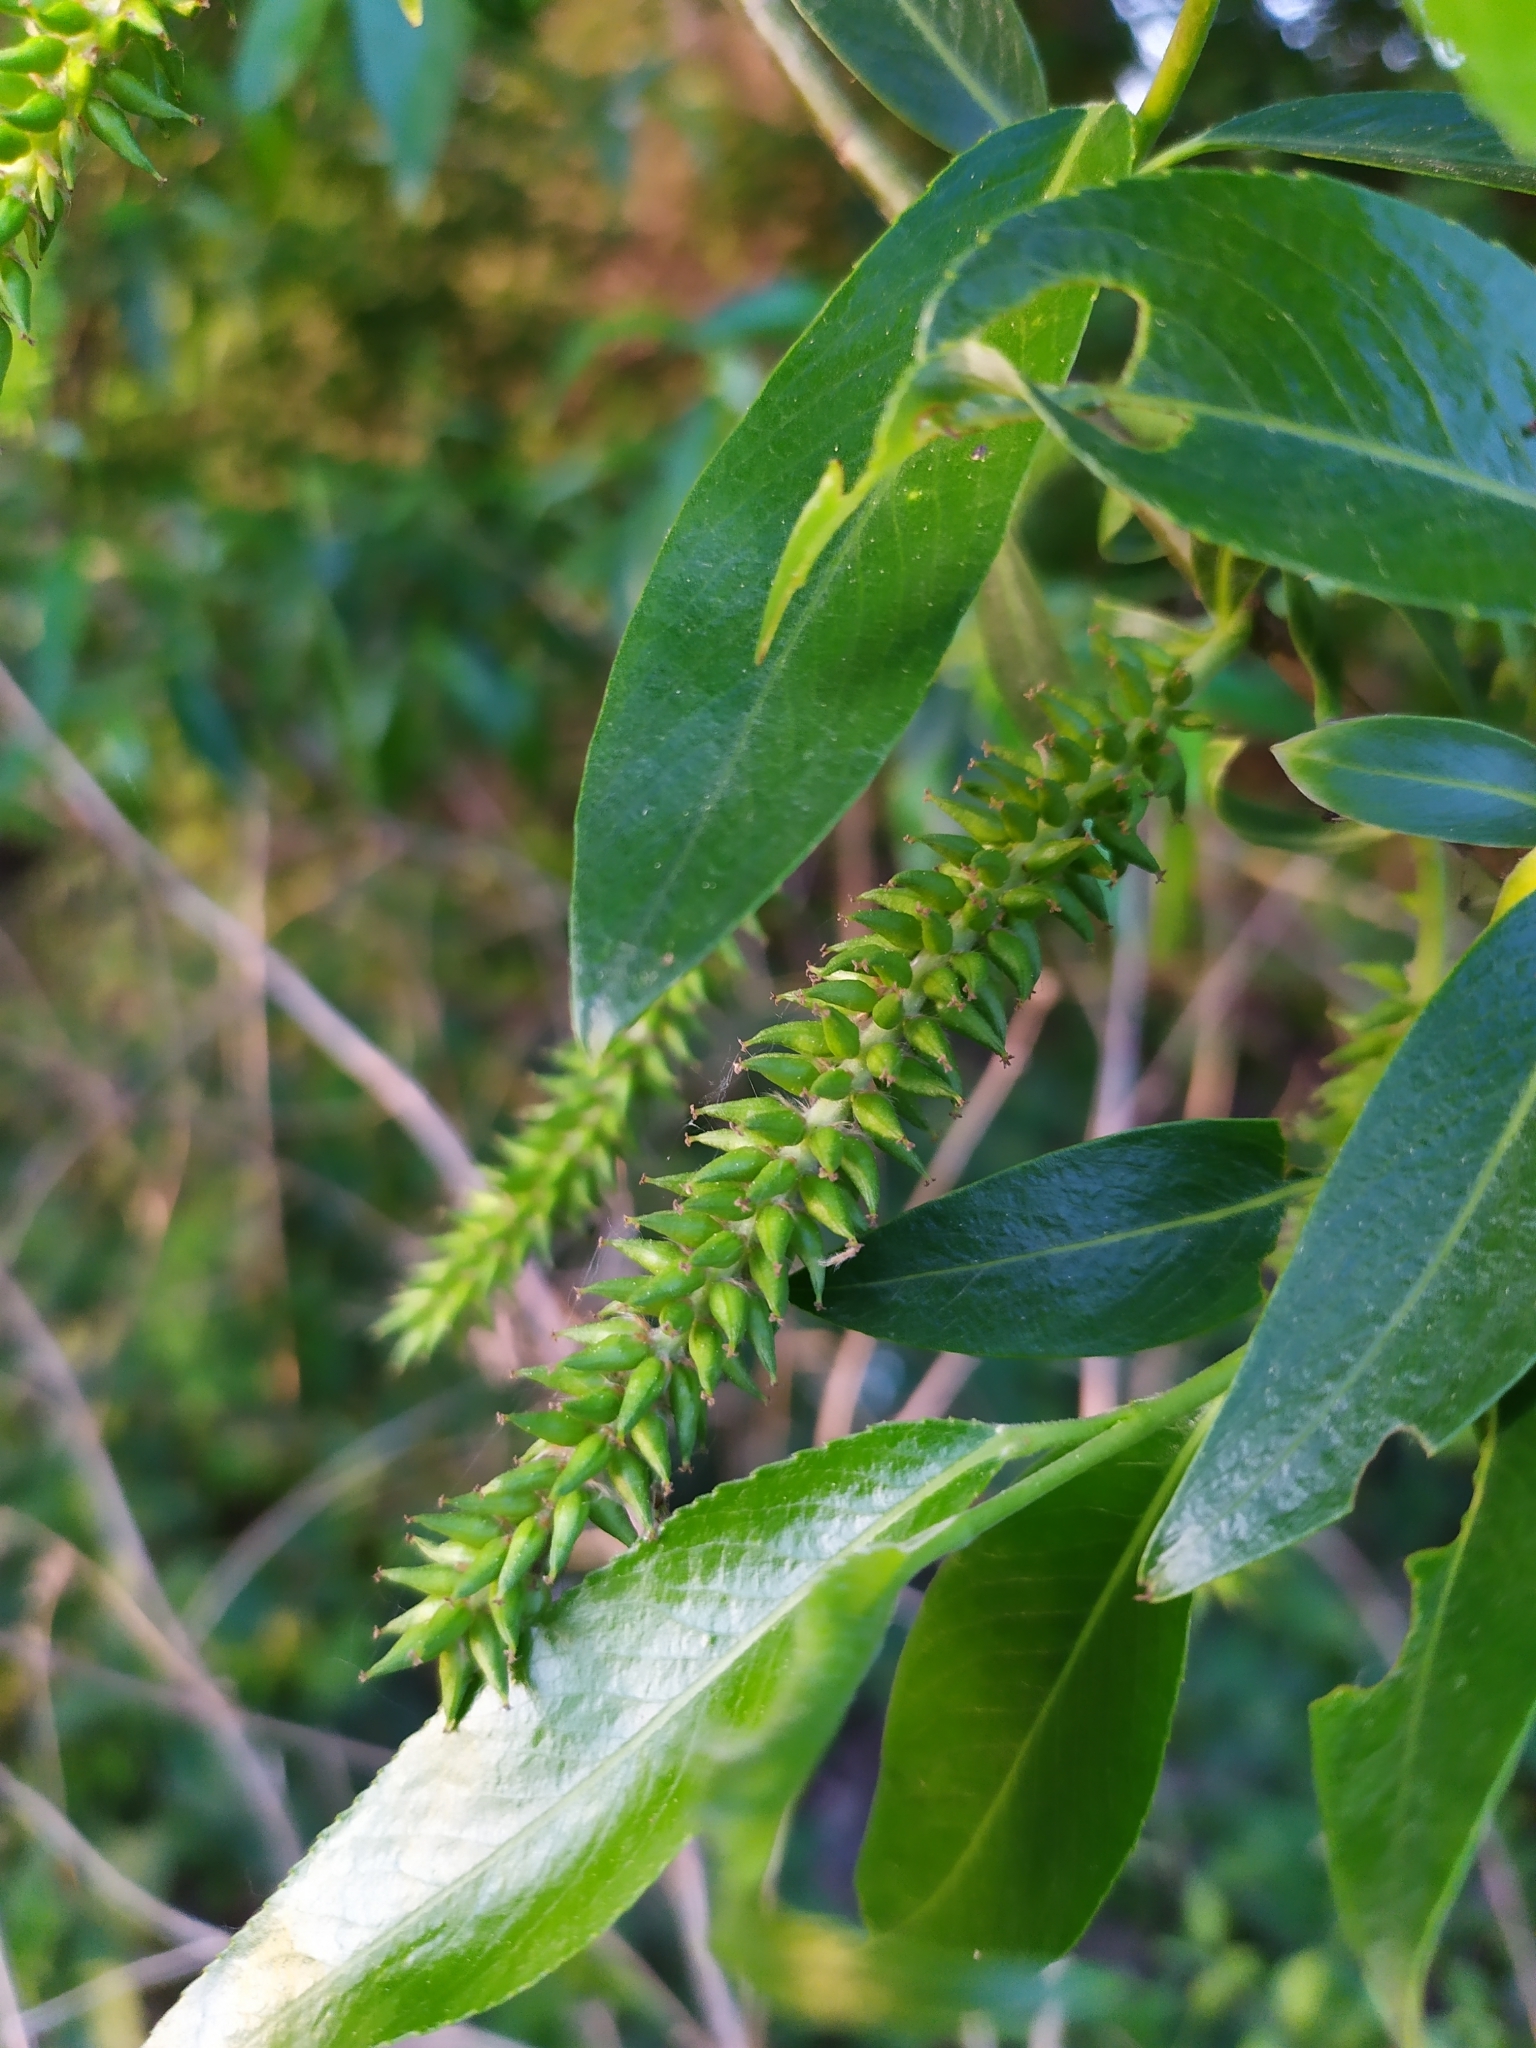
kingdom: Plantae
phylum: Tracheophyta
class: Magnoliopsida
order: Malpighiales
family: Salicaceae
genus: Salix
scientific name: Salix fragilis
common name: Crack willow
